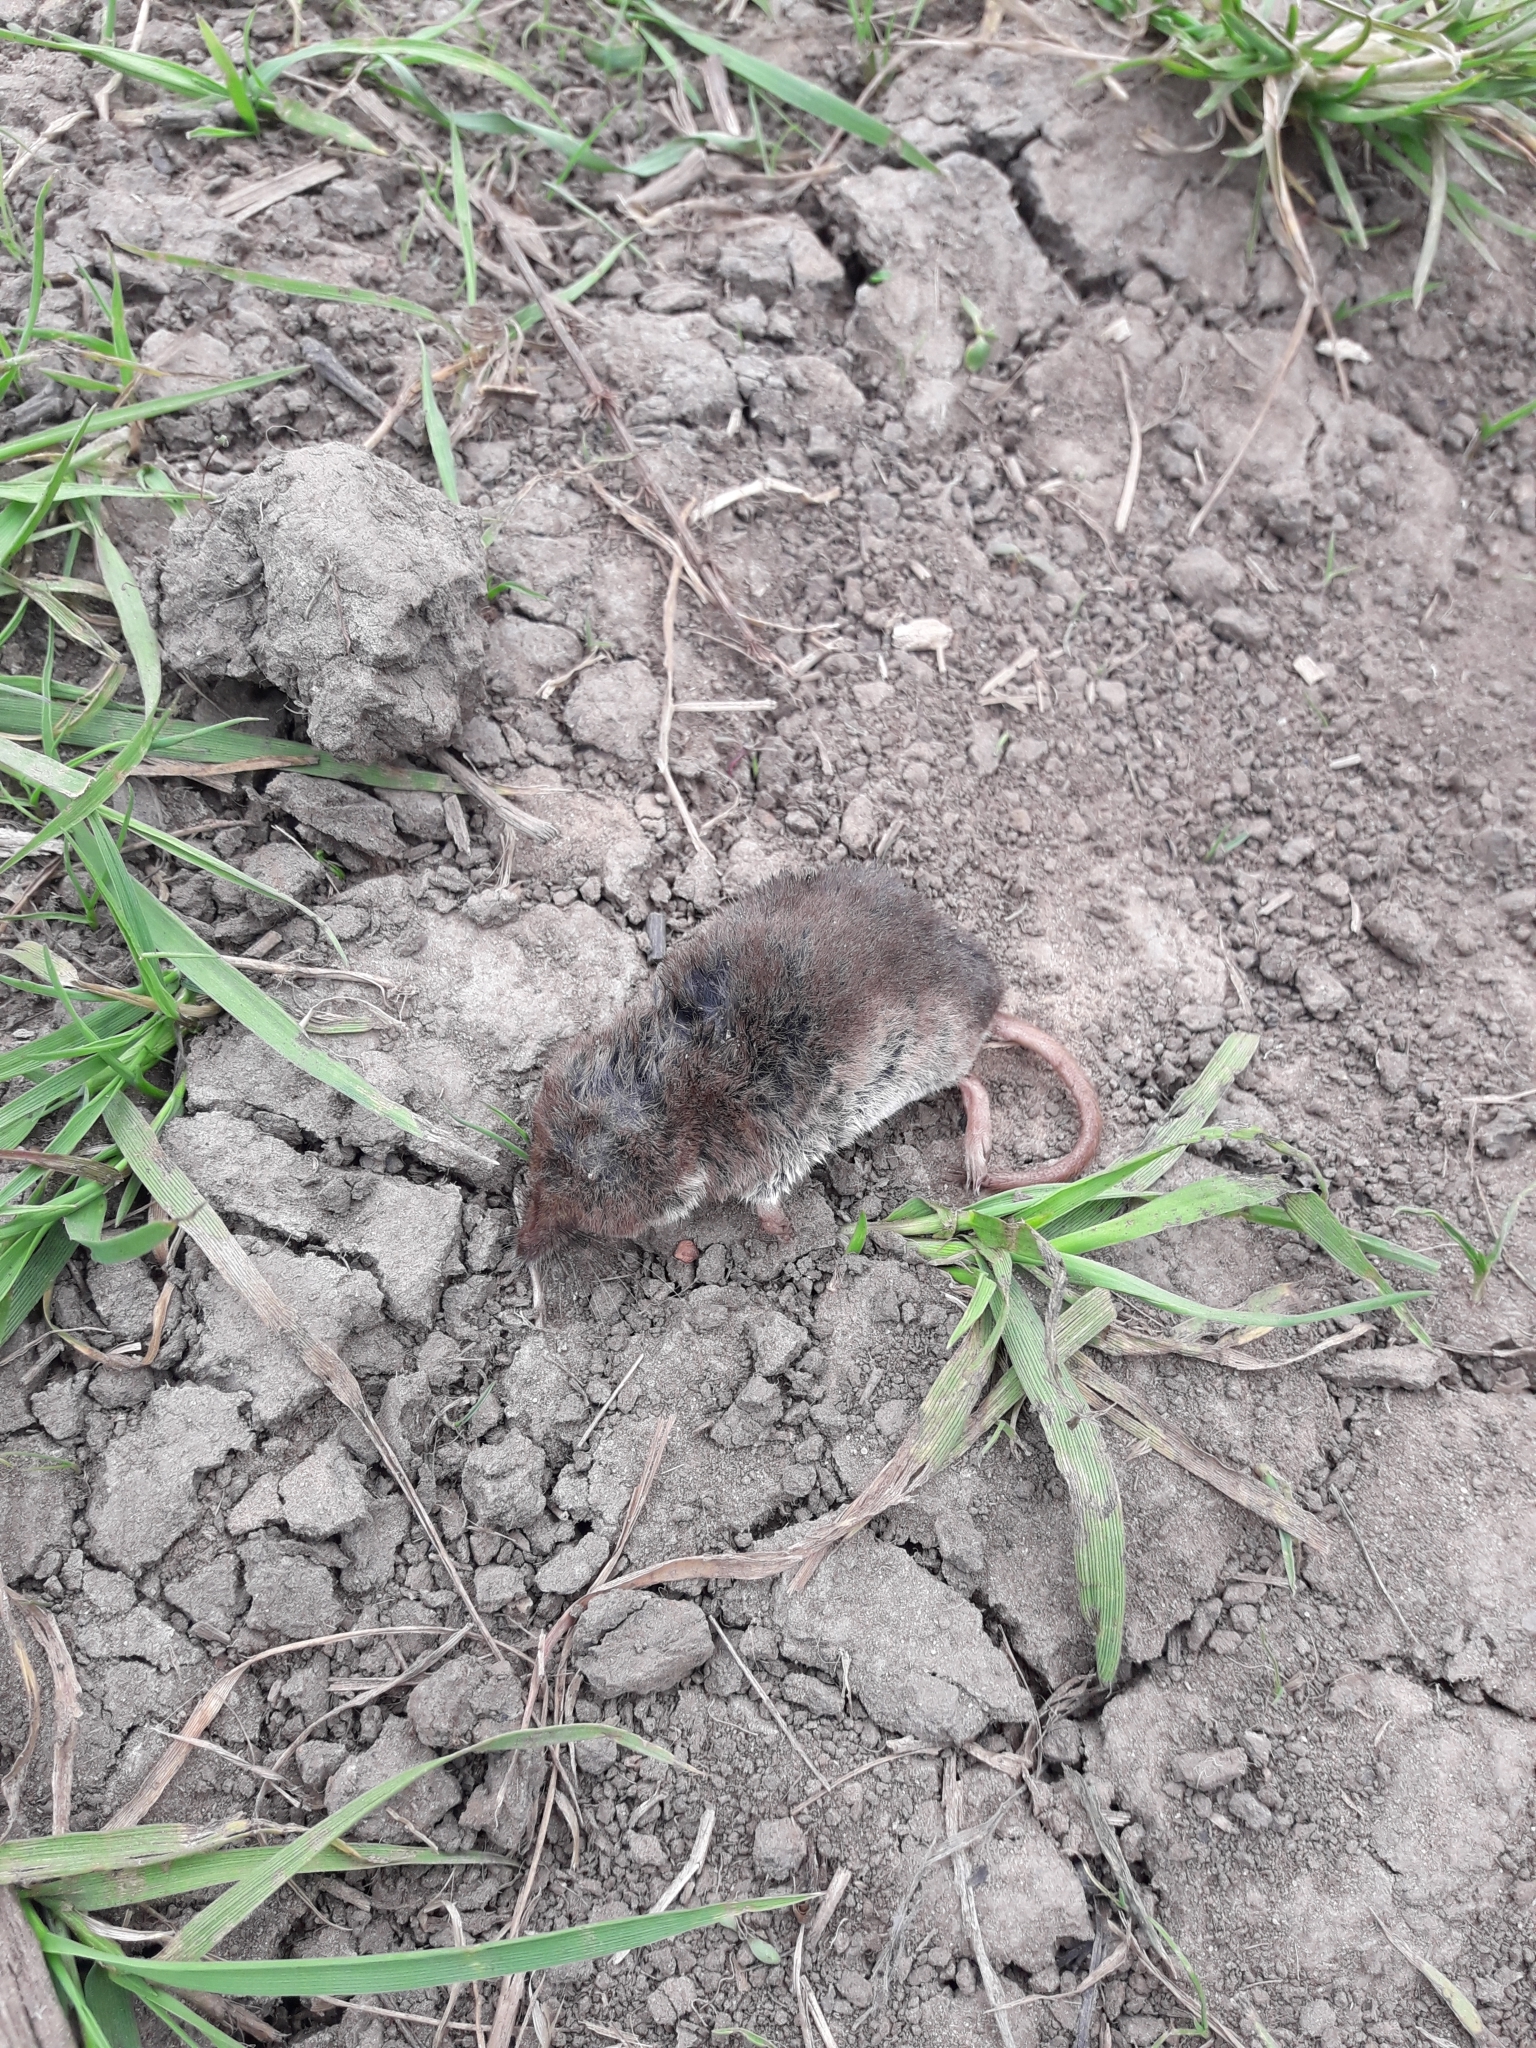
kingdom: Animalia
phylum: Chordata
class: Mammalia
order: Soricomorpha
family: Soricidae
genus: Sorex
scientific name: Sorex araneus
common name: Common shrew
